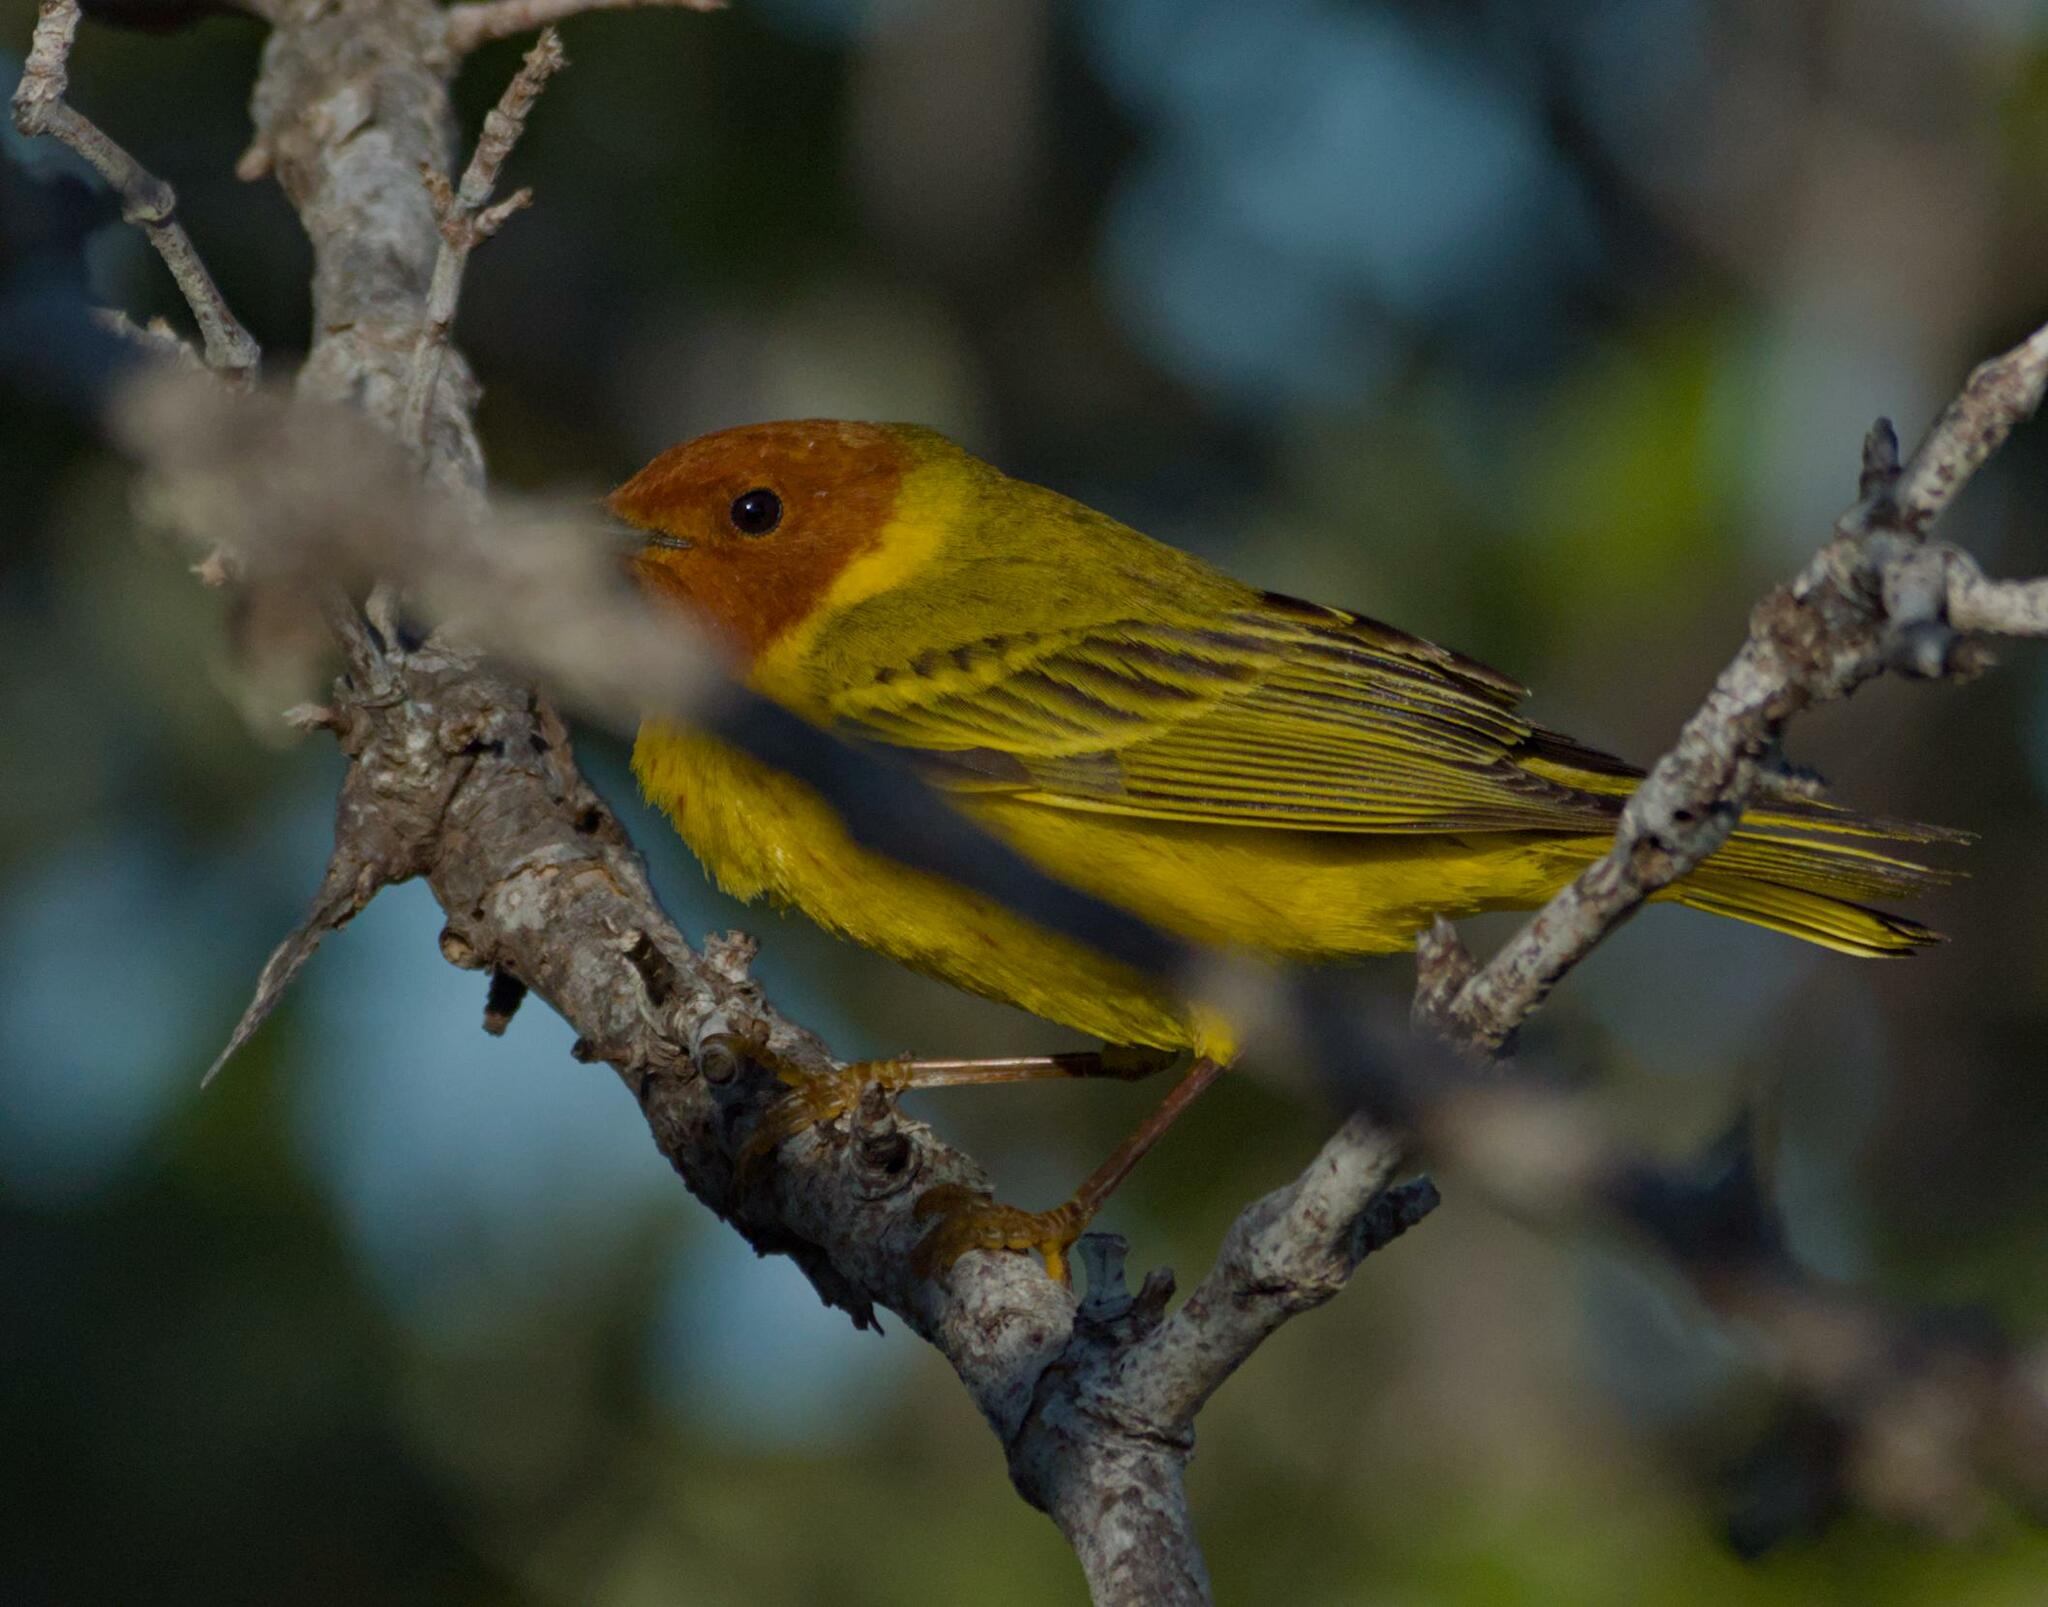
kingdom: Animalia
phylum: Chordata
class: Aves
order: Passeriformes
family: Parulidae
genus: Setophaga
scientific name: Setophaga petechia
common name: Yellow warbler
